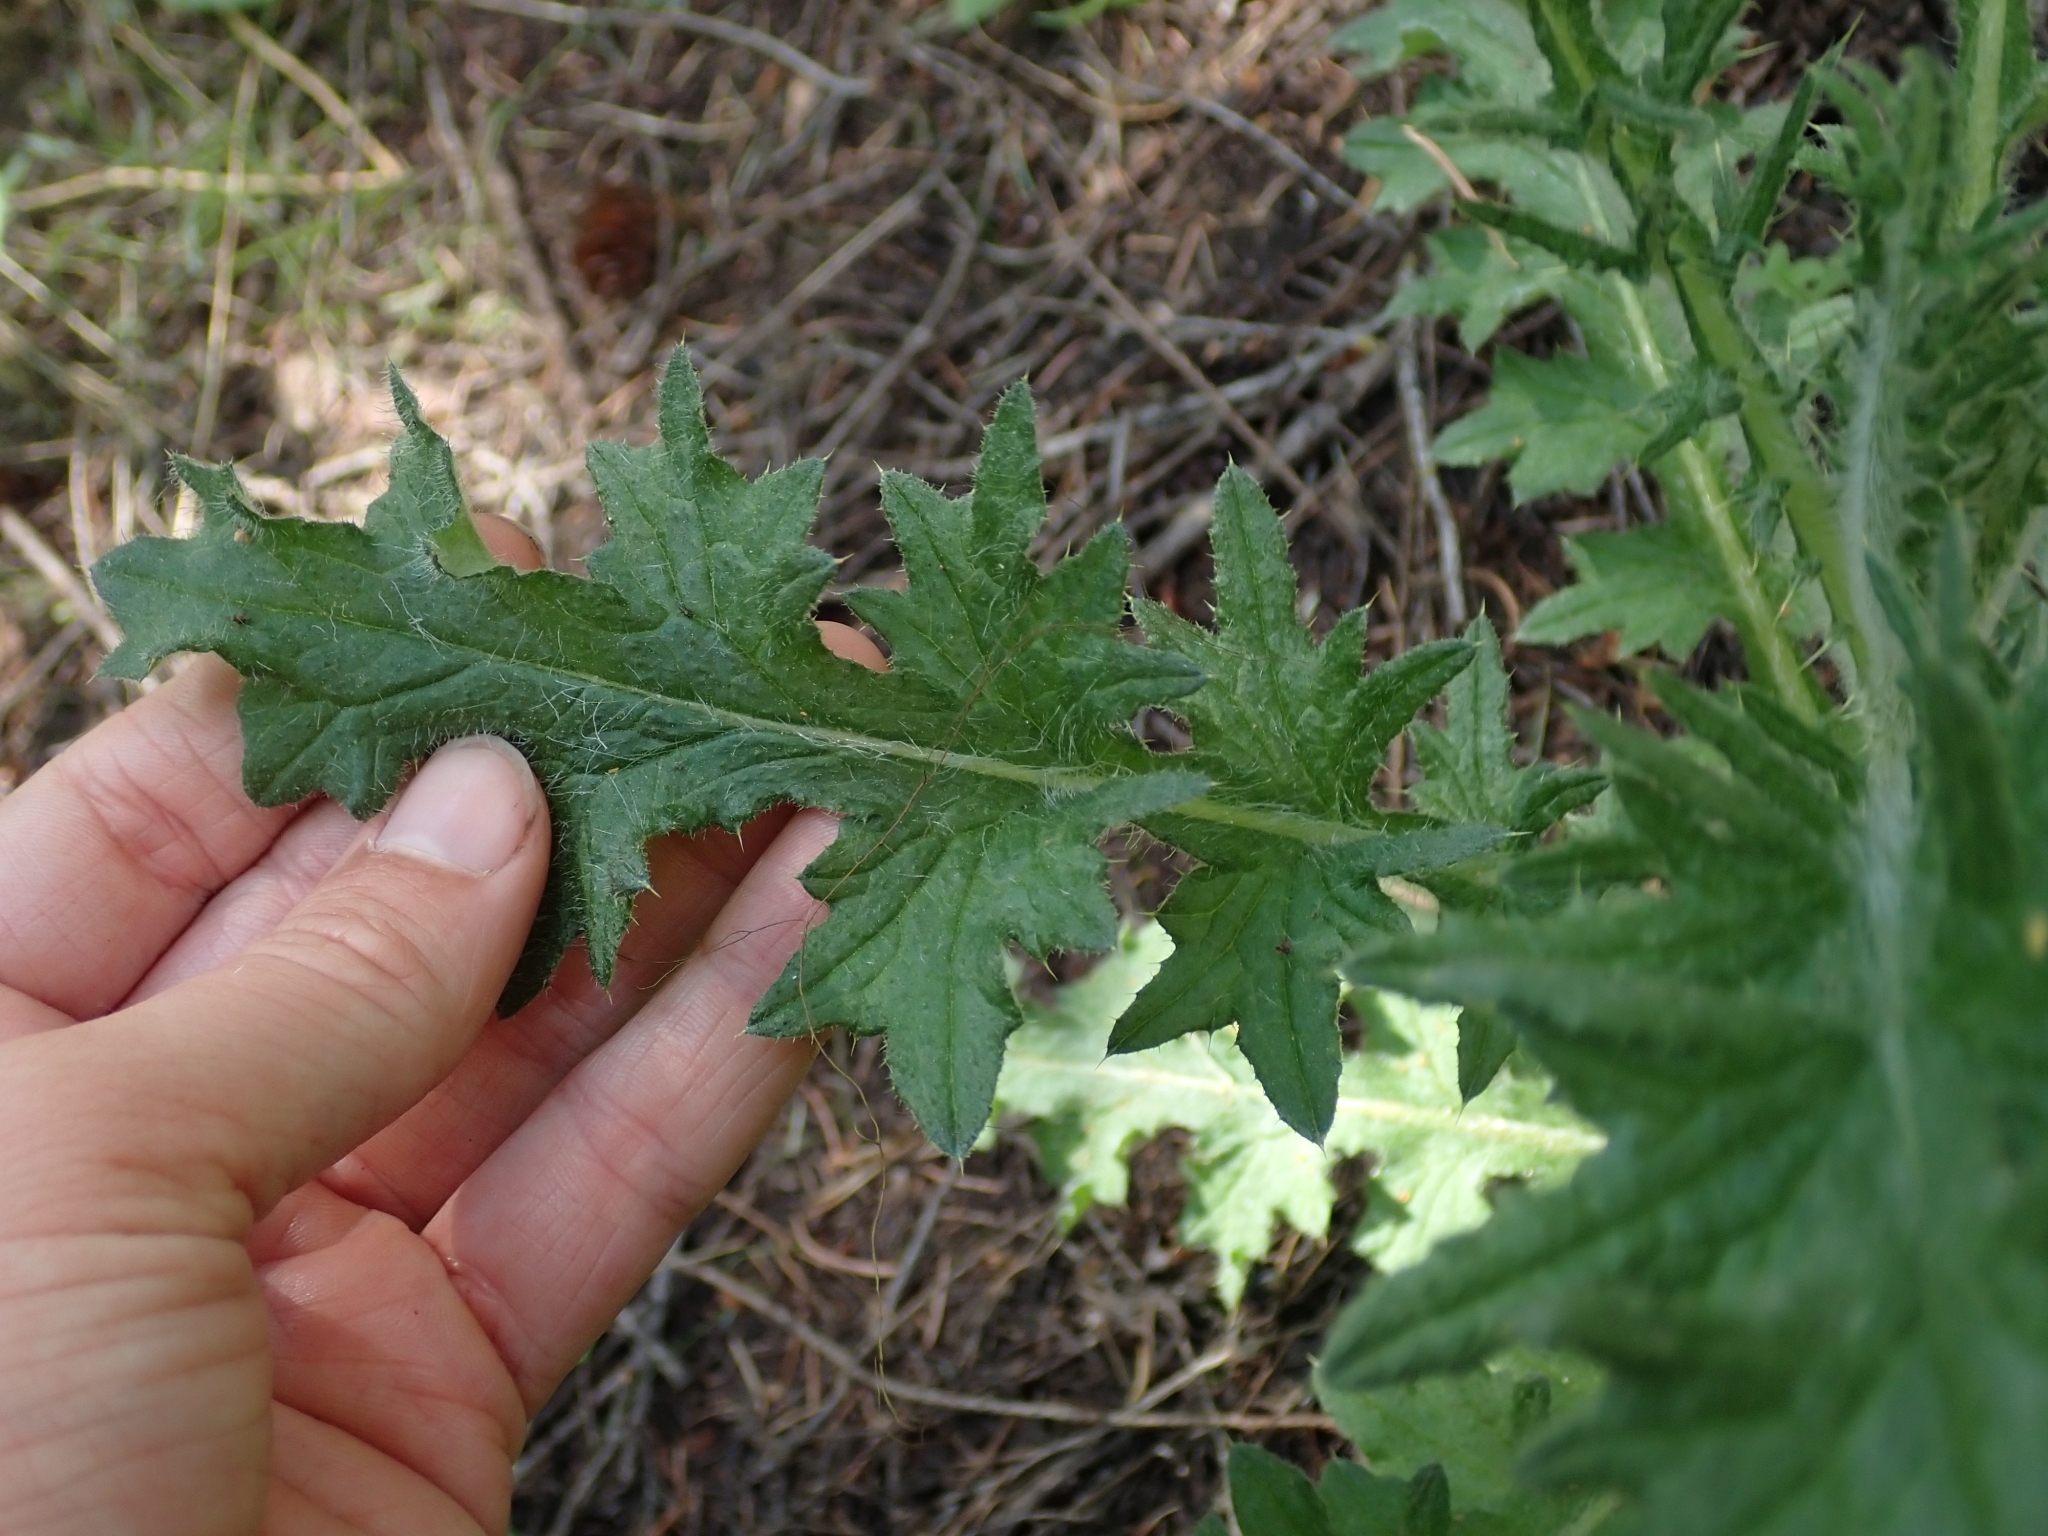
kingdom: Plantae
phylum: Tracheophyta
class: Magnoliopsida
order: Asterales
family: Asteraceae
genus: Cirsium
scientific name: Cirsium vulgare
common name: Bull thistle
